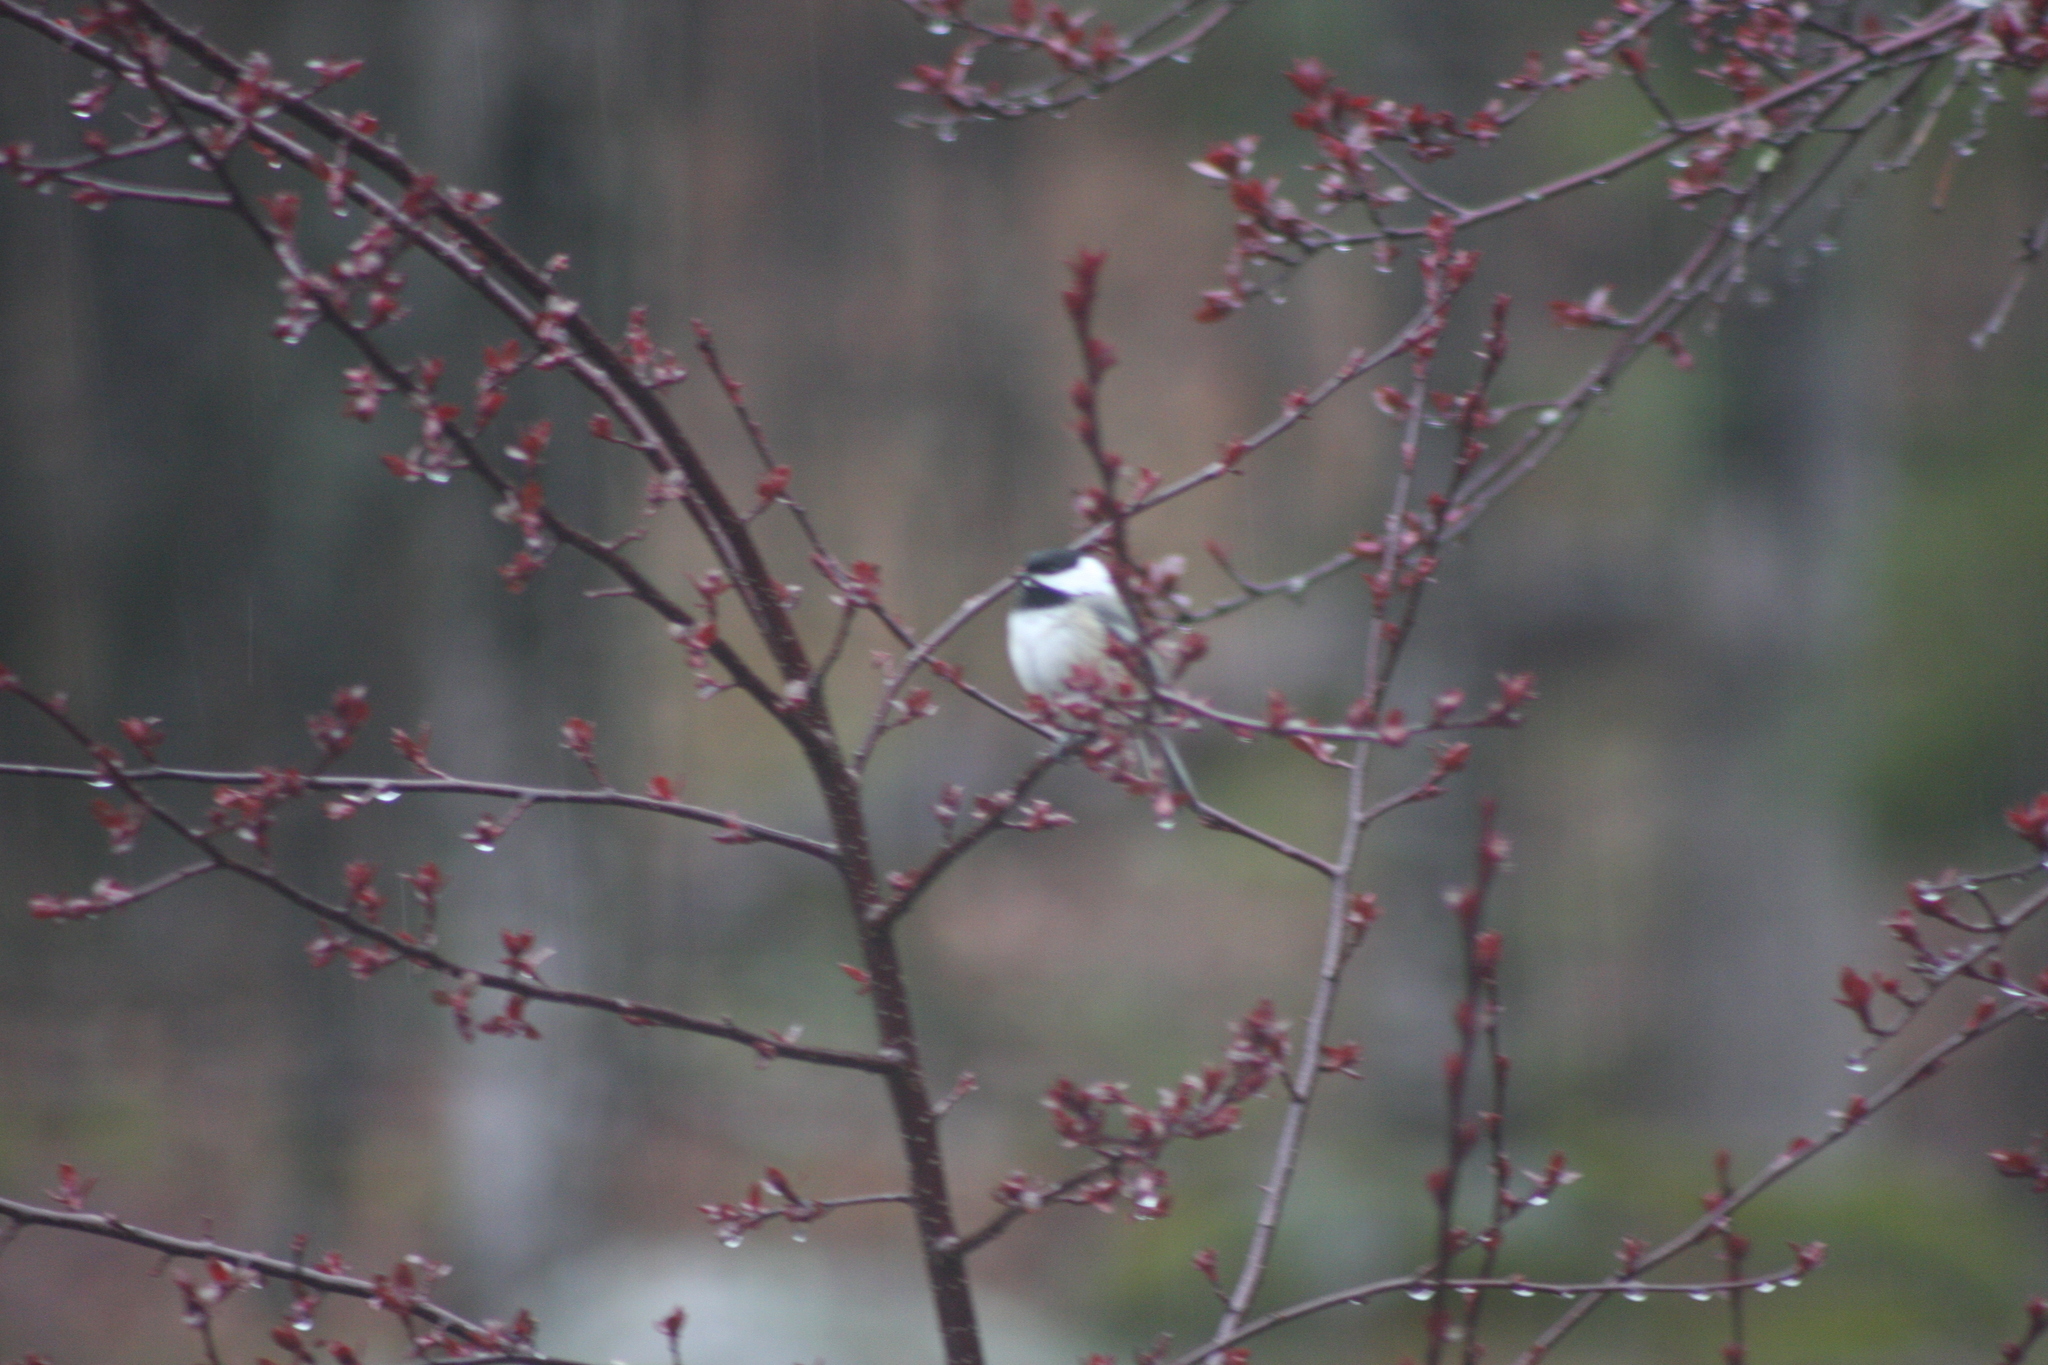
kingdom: Animalia
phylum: Chordata
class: Aves
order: Passeriformes
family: Paridae
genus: Poecile
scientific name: Poecile atricapillus
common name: Black-capped chickadee
